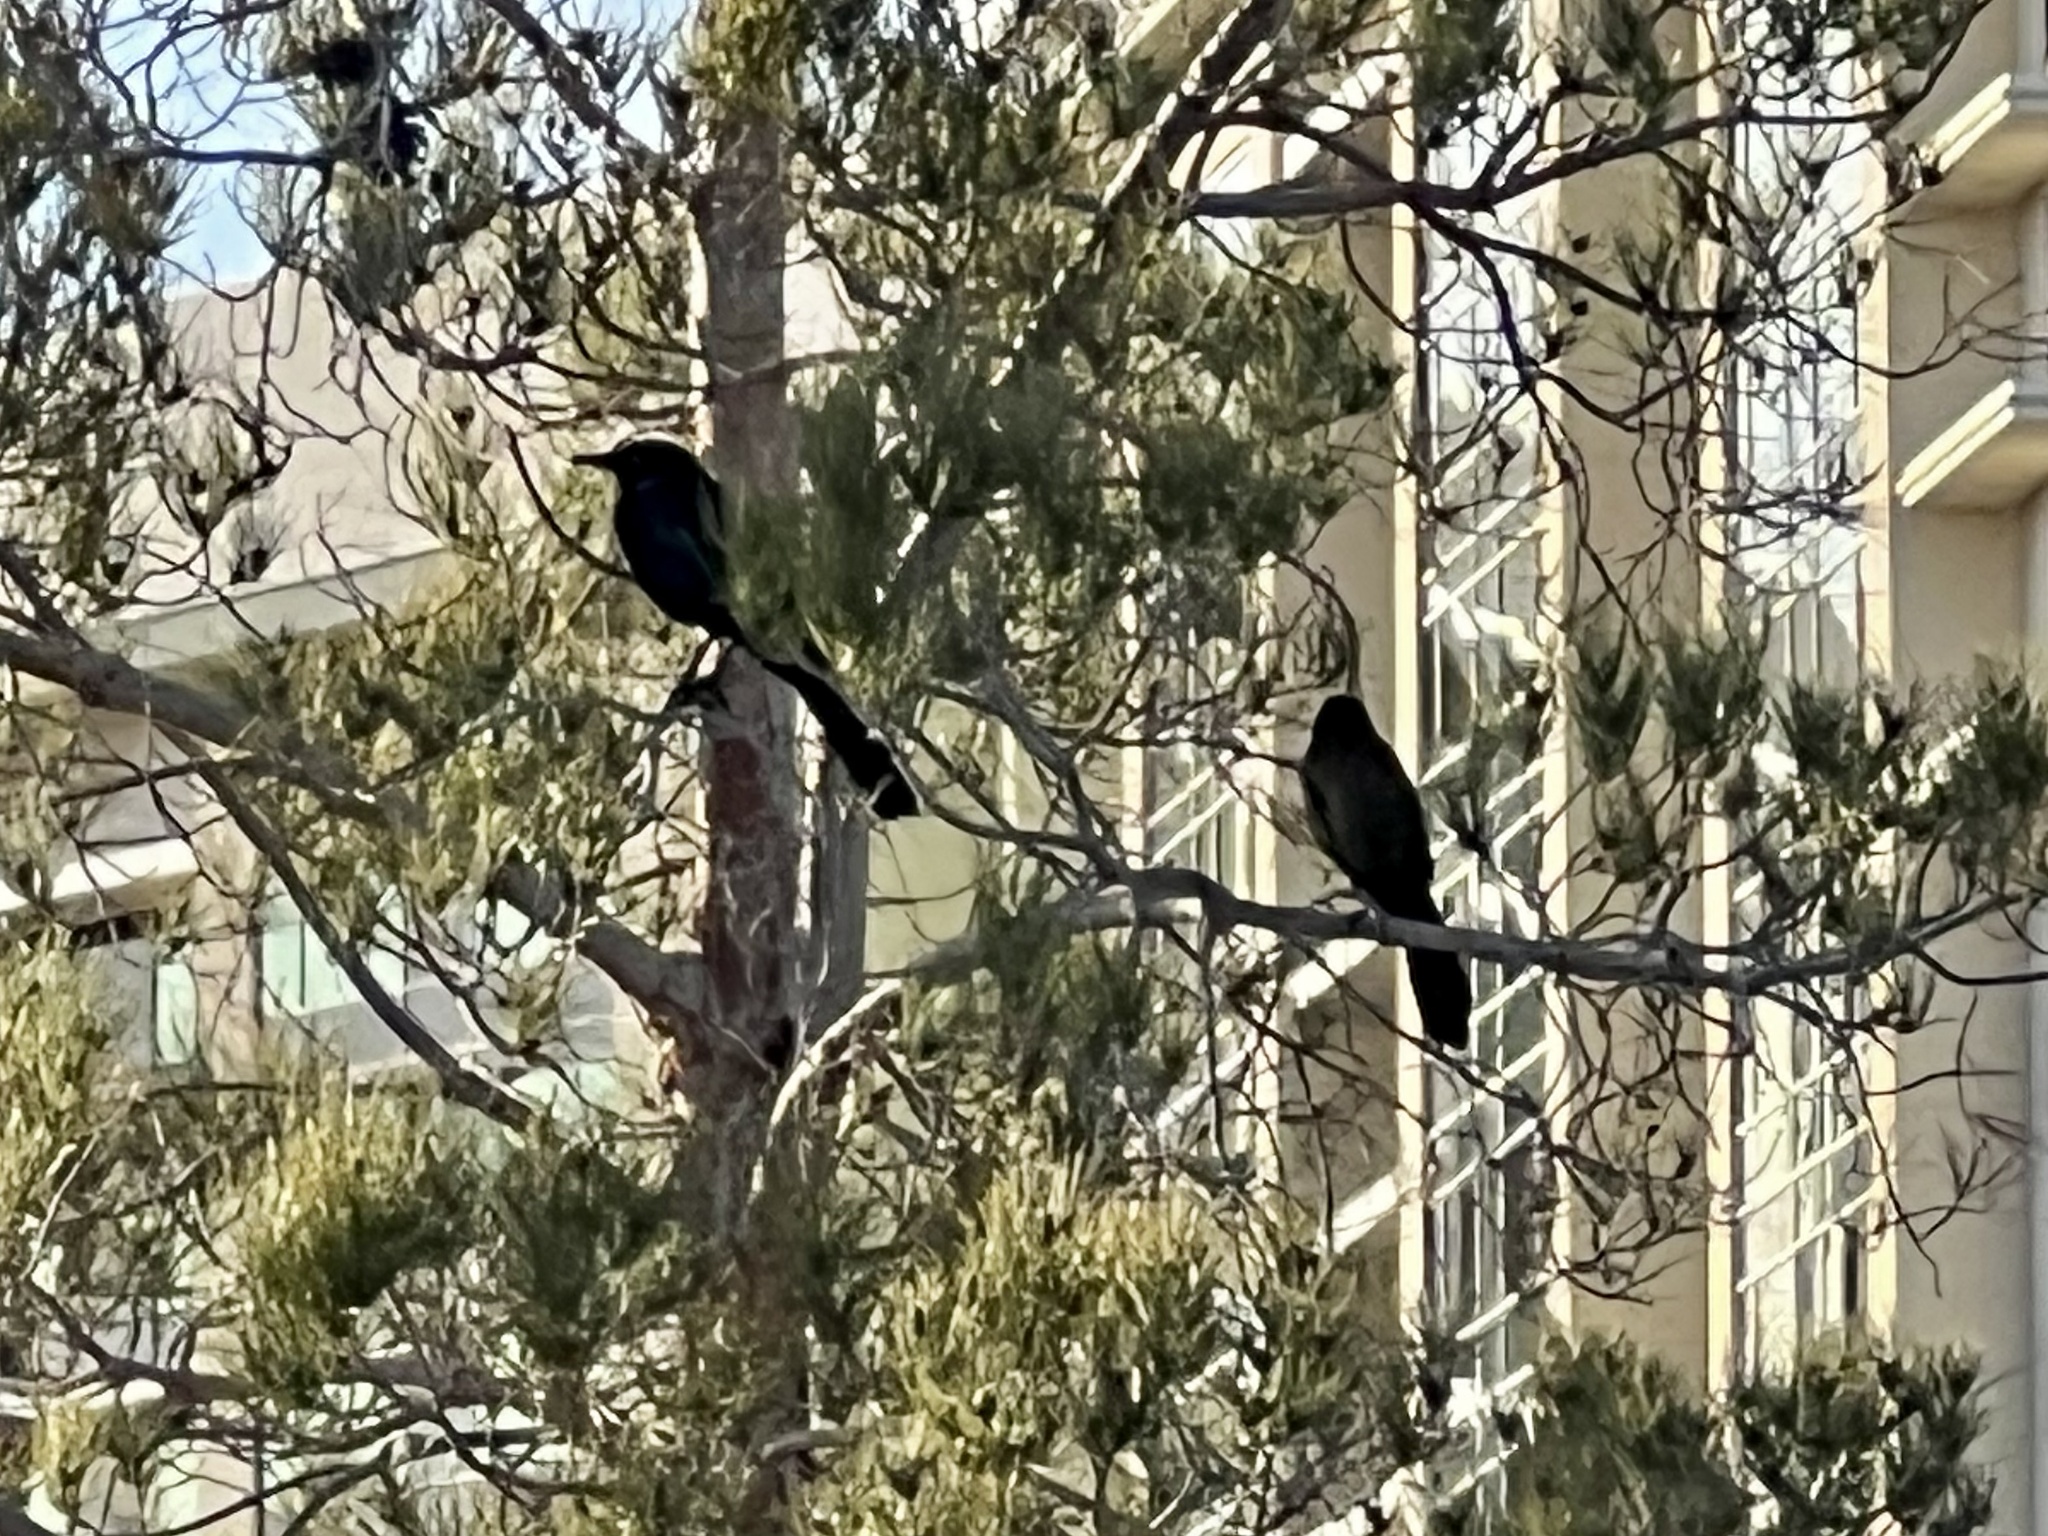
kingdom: Animalia
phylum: Chordata
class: Aves
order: Passeriformes
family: Icteridae
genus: Quiscalus
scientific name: Quiscalus mexicanus
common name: Great-tailed grackle
